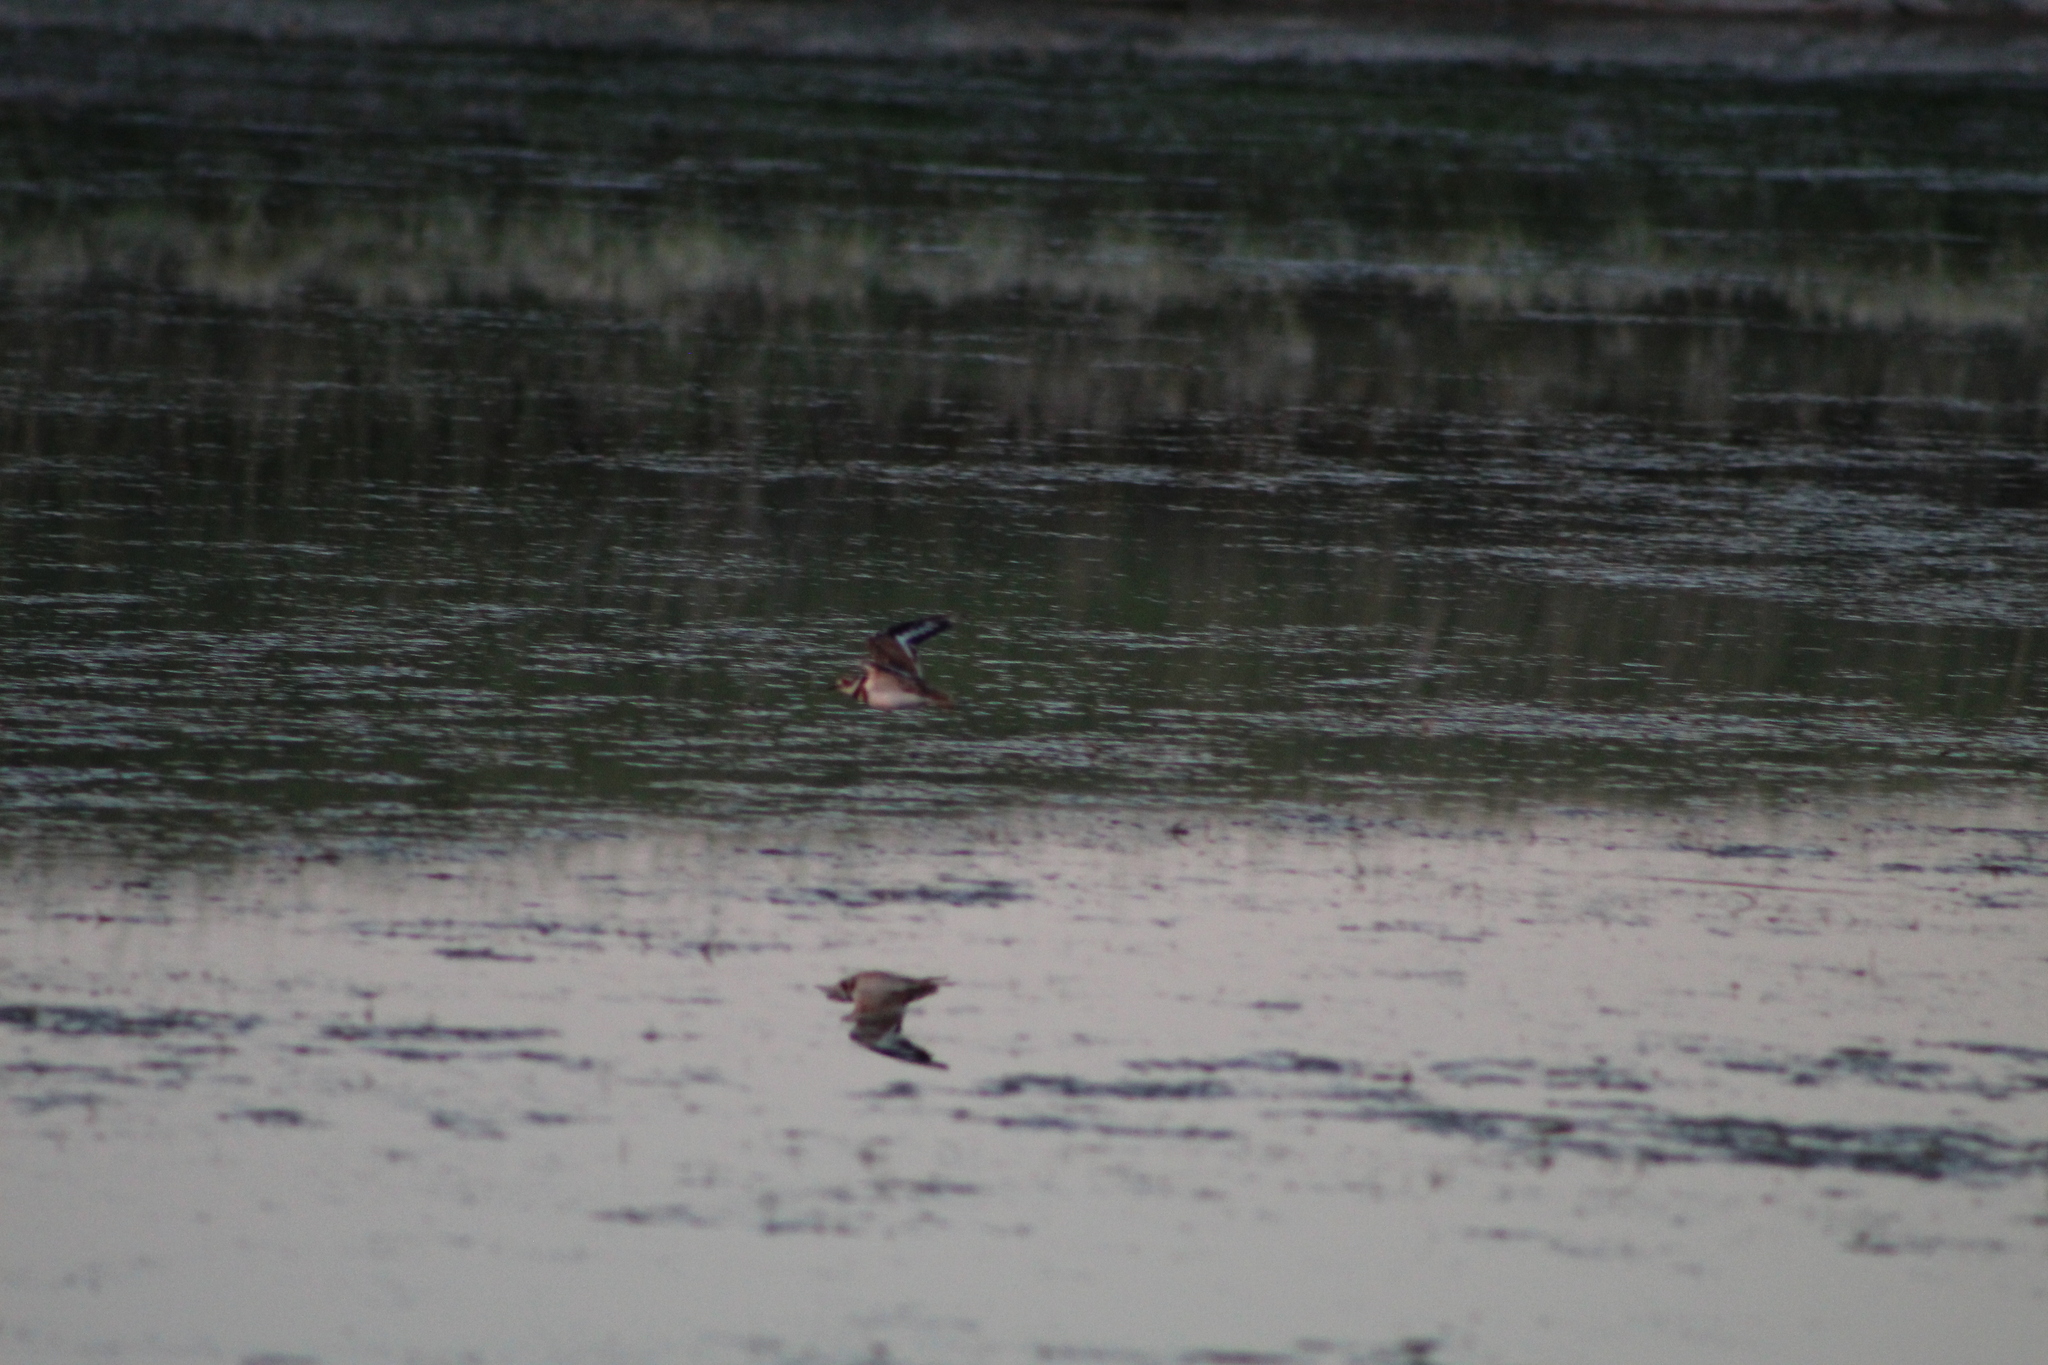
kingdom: Animalia
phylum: Chordata
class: Aves
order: Charadriiformes
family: Charadriidae
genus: Charadrius
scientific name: Charadrius vociferus
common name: Killdeer
